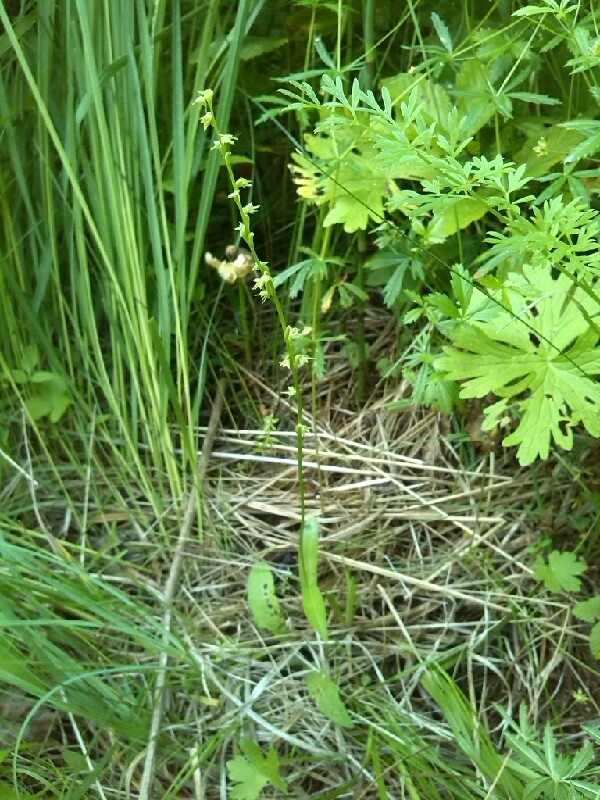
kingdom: Plantae
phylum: Tracheophyta
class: Liliopsida
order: Asparagales
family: Orchidaceae
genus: Herminium
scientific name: Herminium monorchis
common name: Musk orchid
